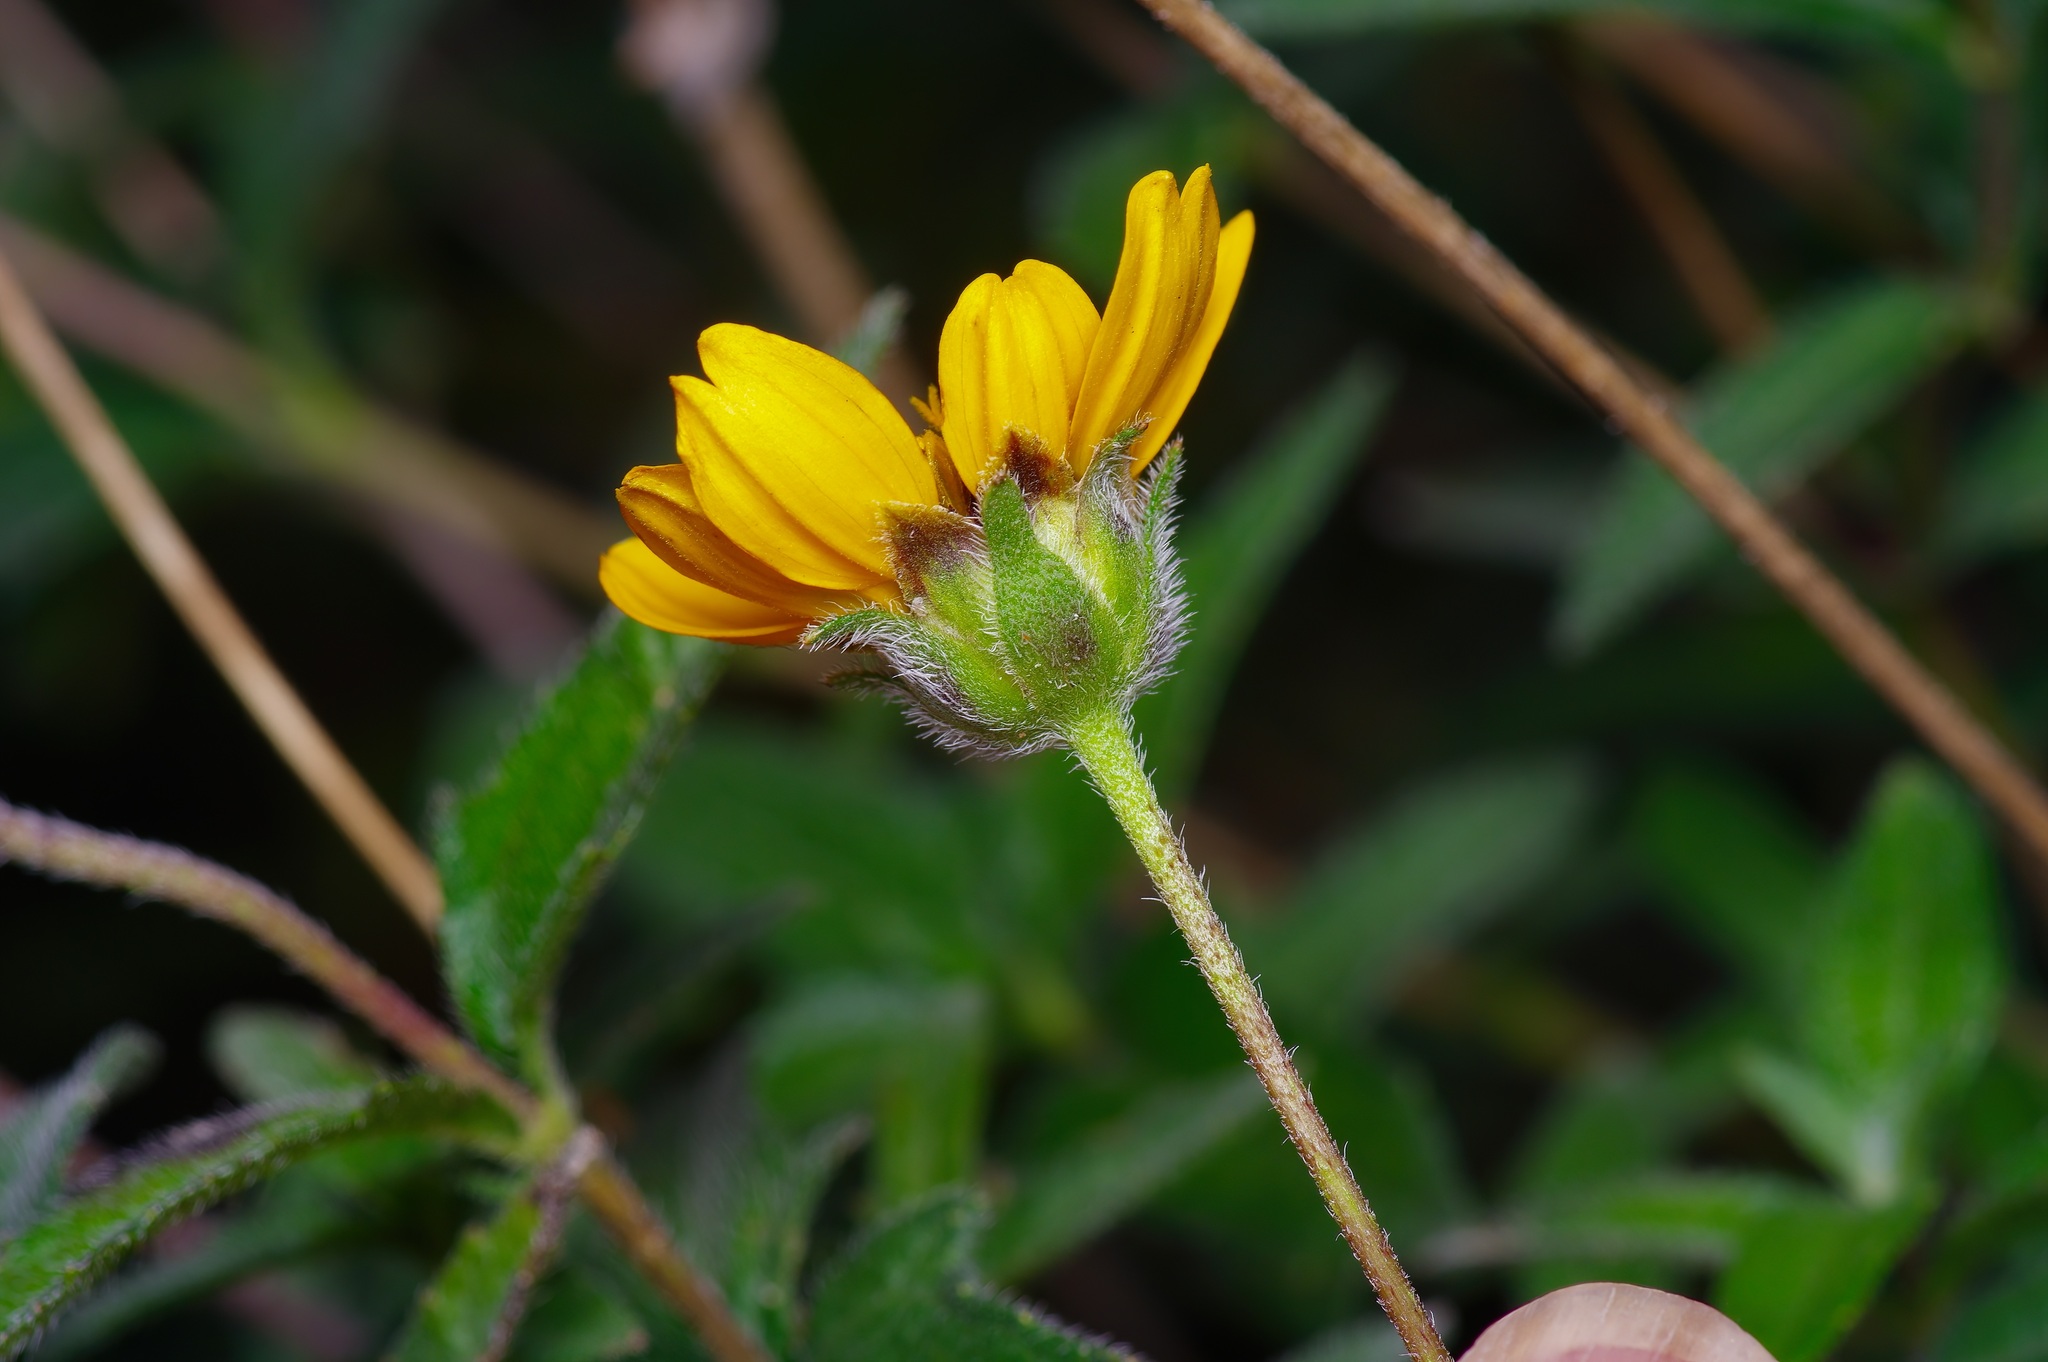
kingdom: Plantae
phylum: Tracheophyta
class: Magnoliopsida
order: Asterales
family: Asteraceae
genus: Wedelia
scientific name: Wedelia acapulcensis
